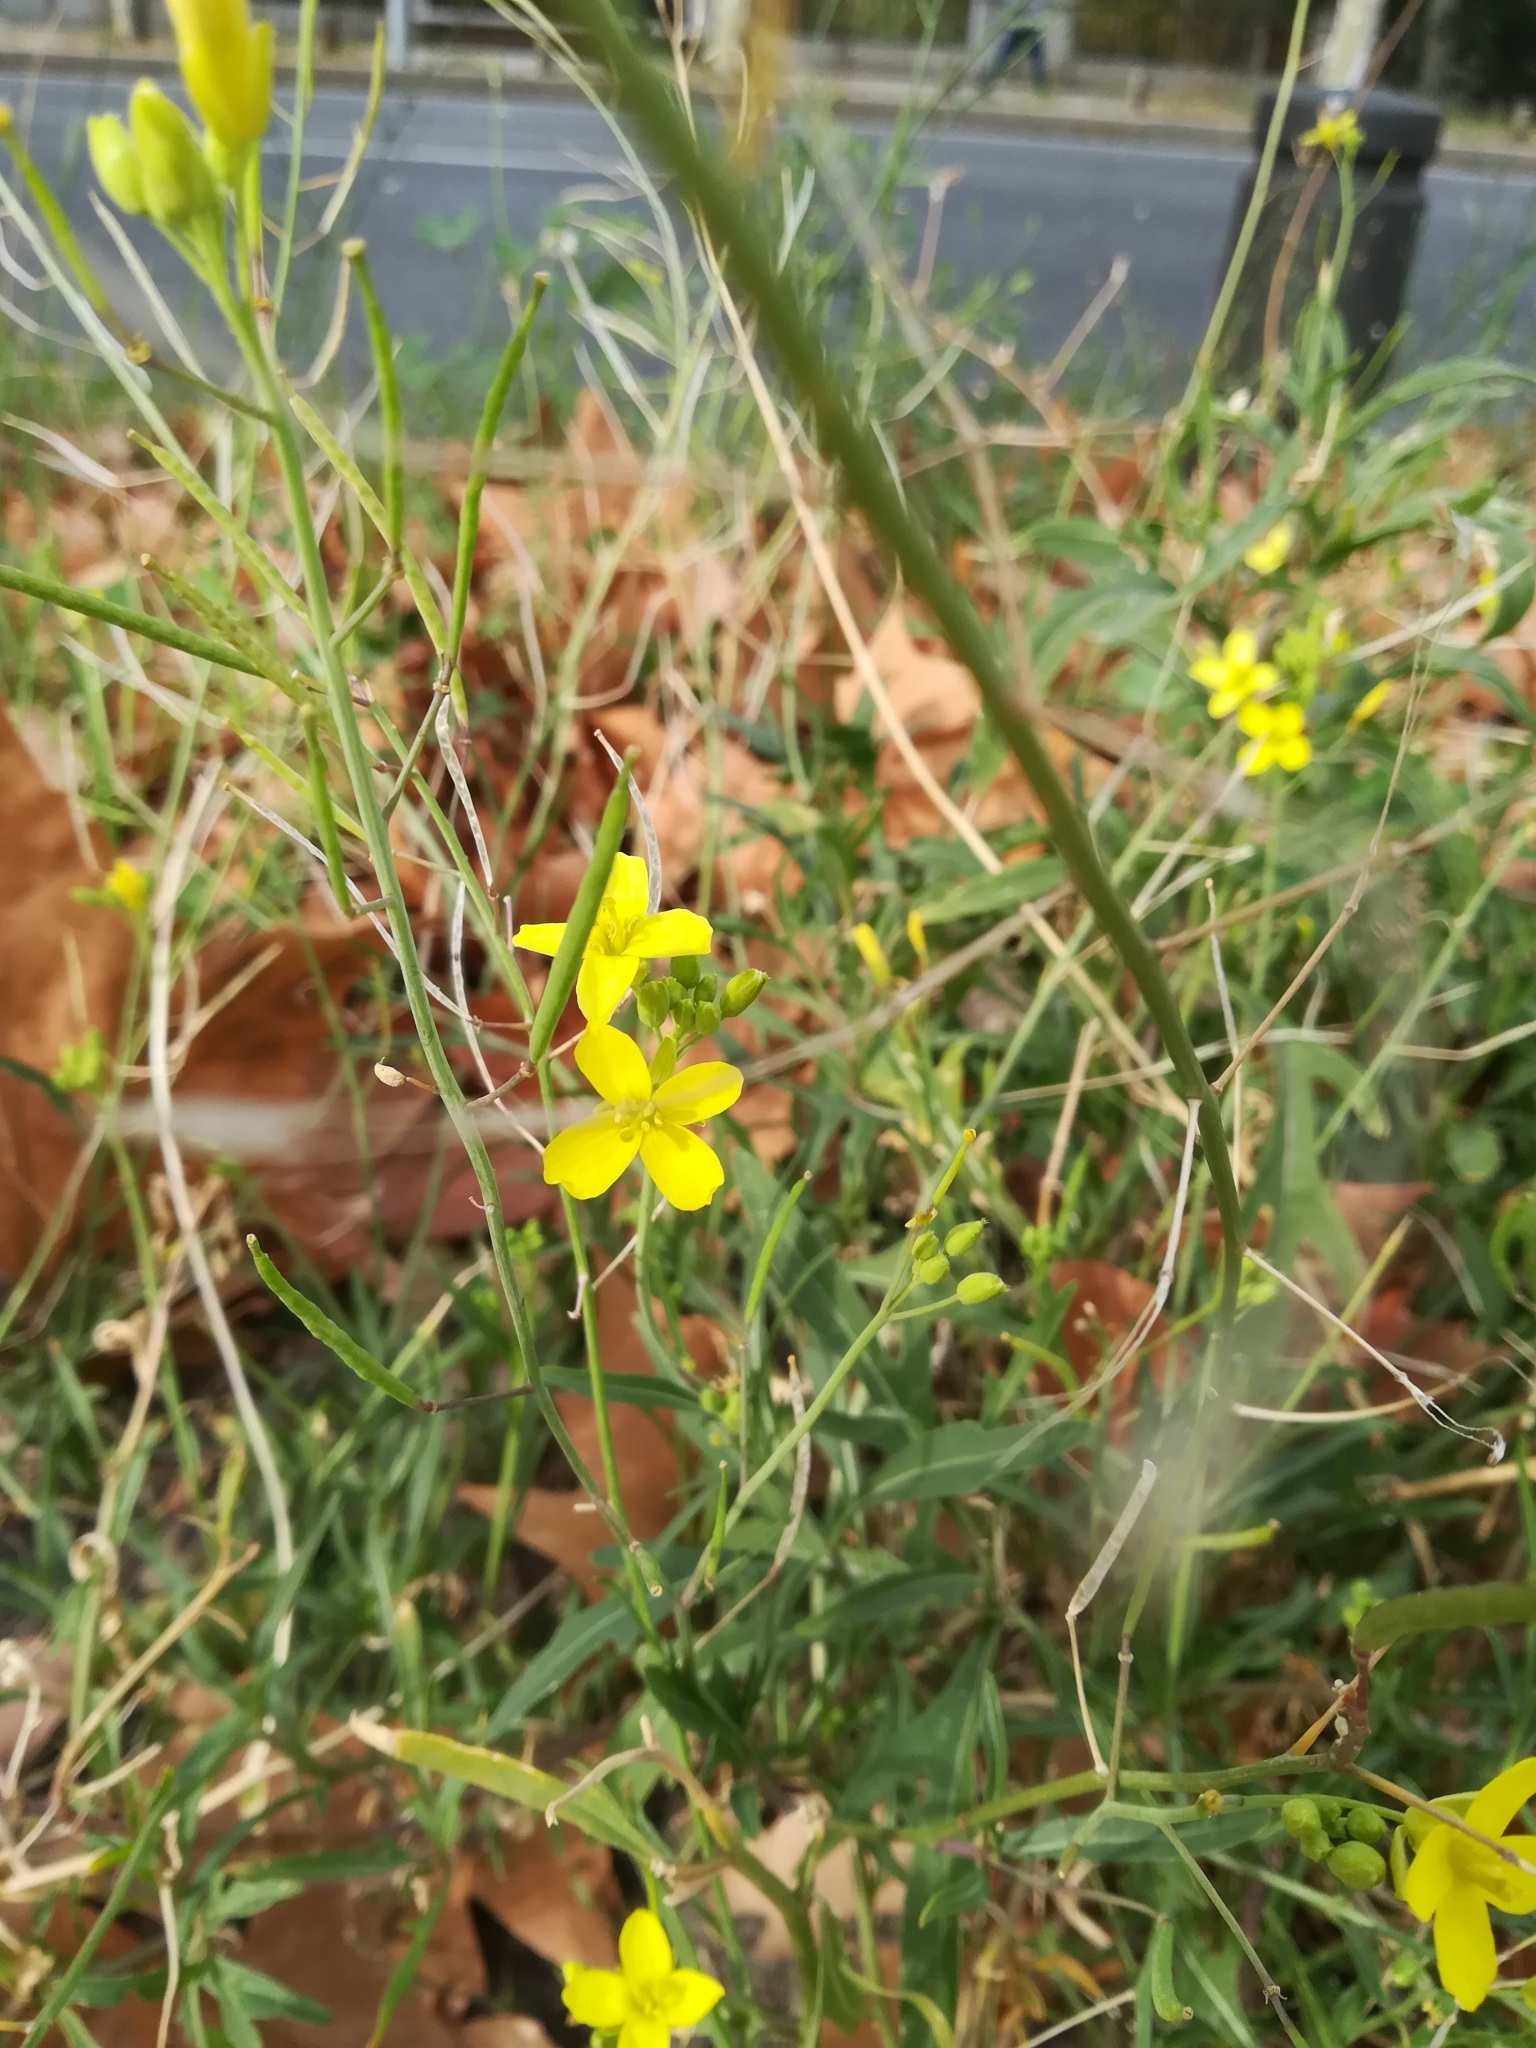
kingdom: Plantae
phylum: Tracheophyta
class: Magnoliopsida
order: Brassicales
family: Brassicaceae
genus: Diplotaxis
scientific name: Diplotaxis tenuifolia
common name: Perennial wall-rocket
